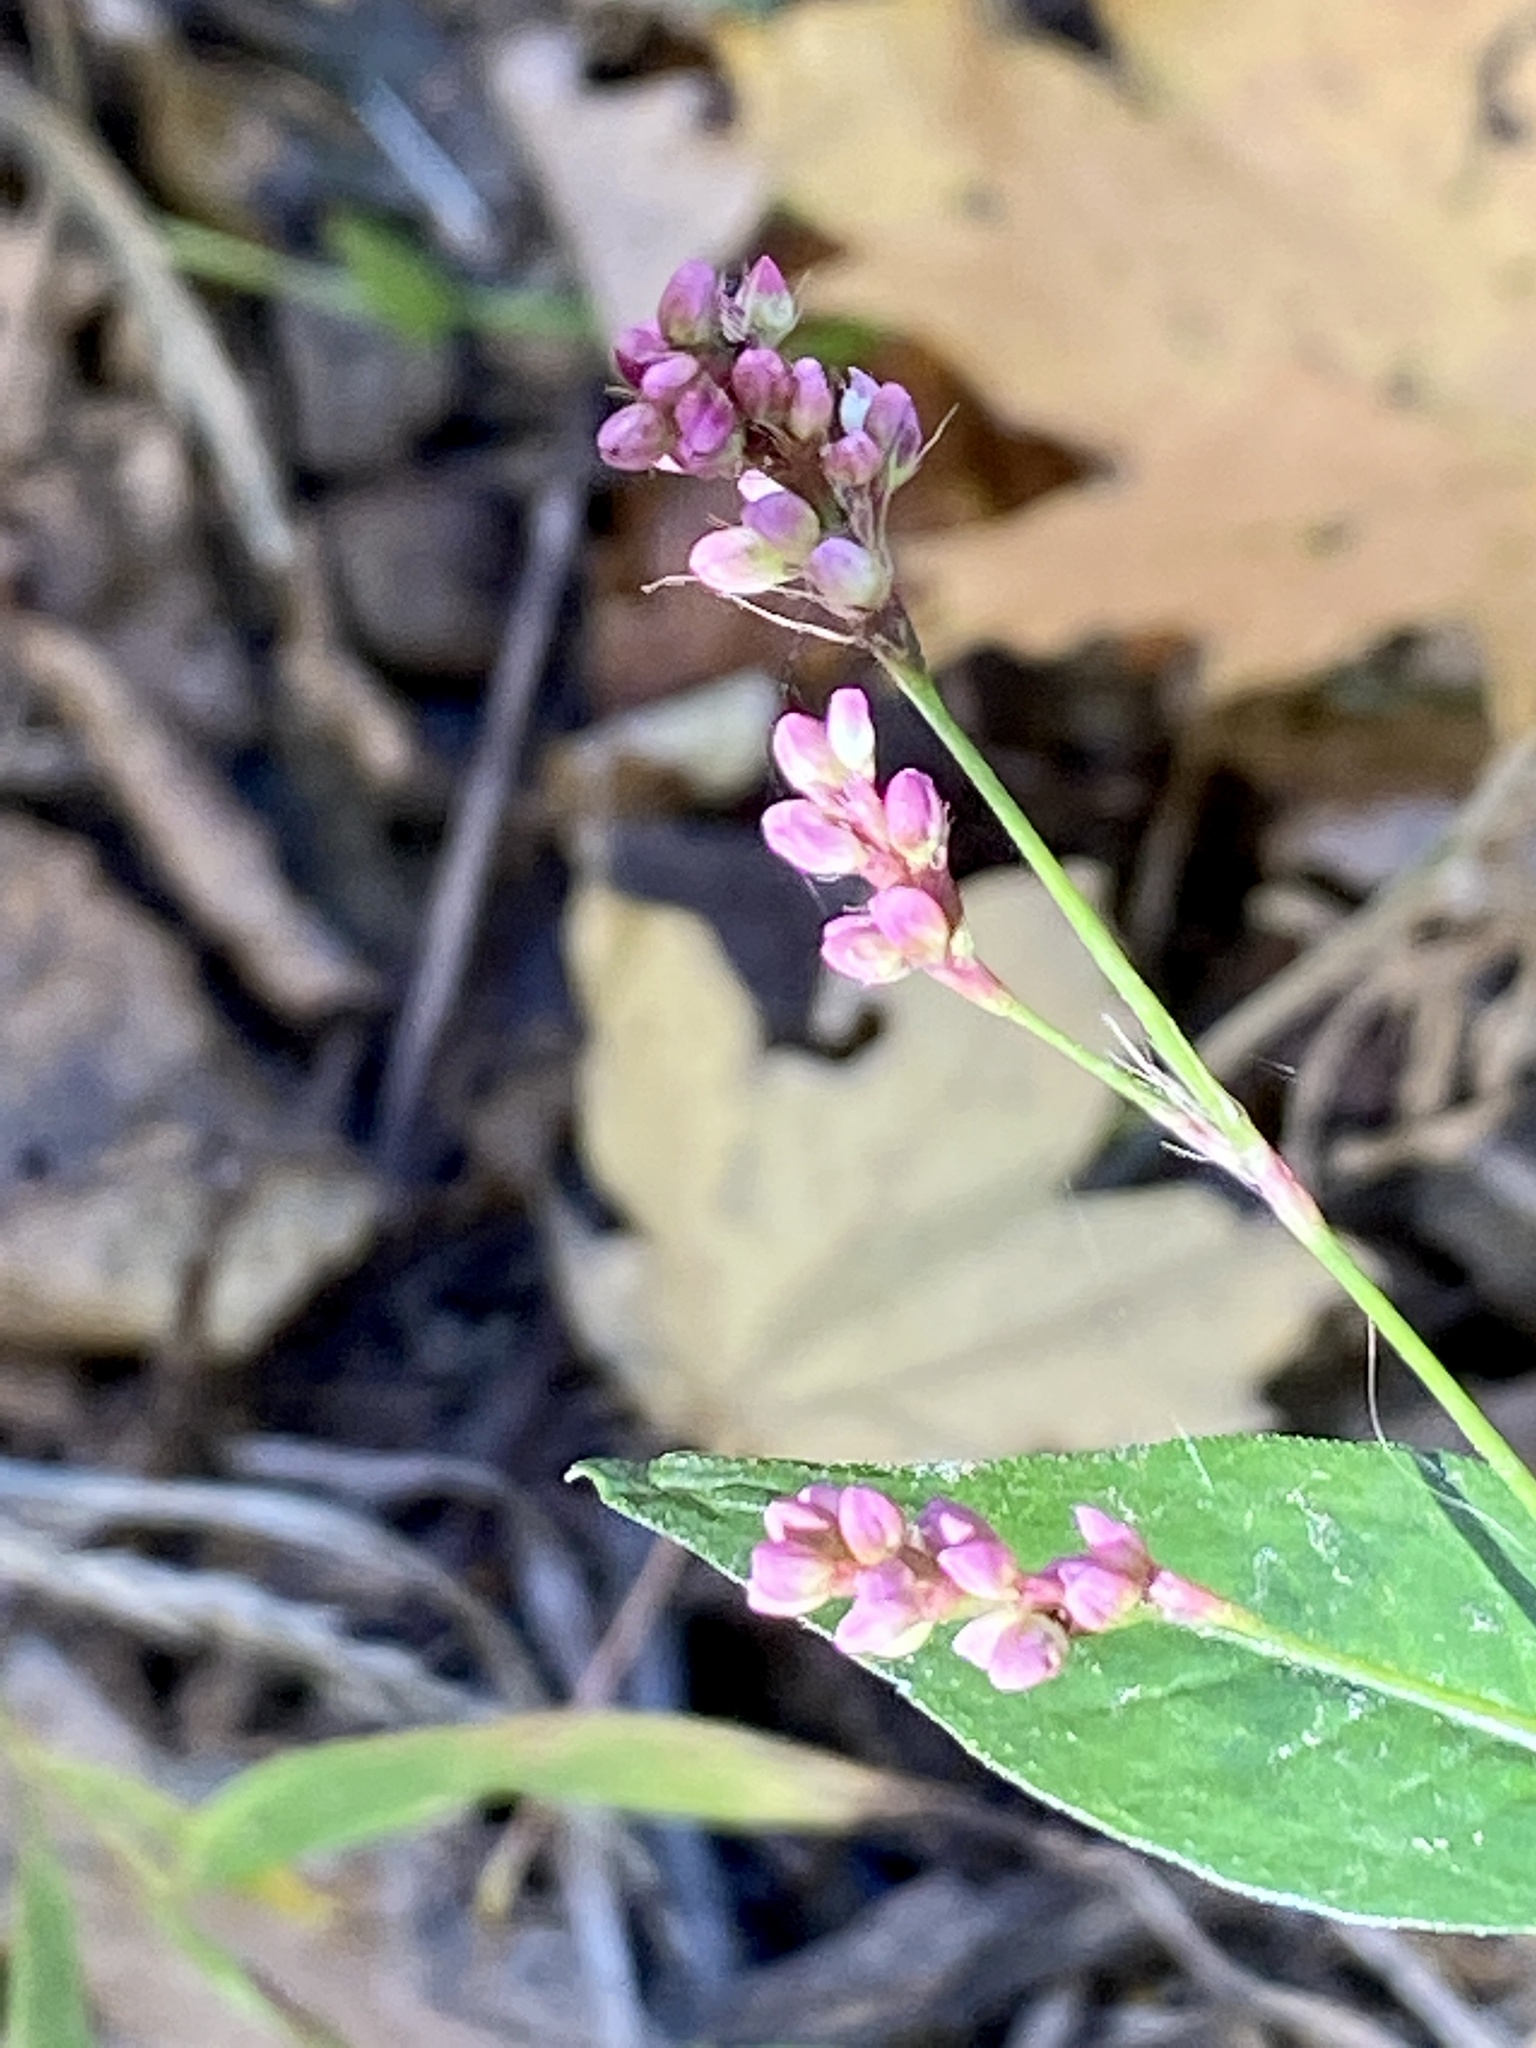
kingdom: Plantae
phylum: Tracheophyta
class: Magnoliopsida
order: Caryophyllales
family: Polygonaceae
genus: Persicaria
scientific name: Persicaria longiseta
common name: Bristly lady's-thumb
